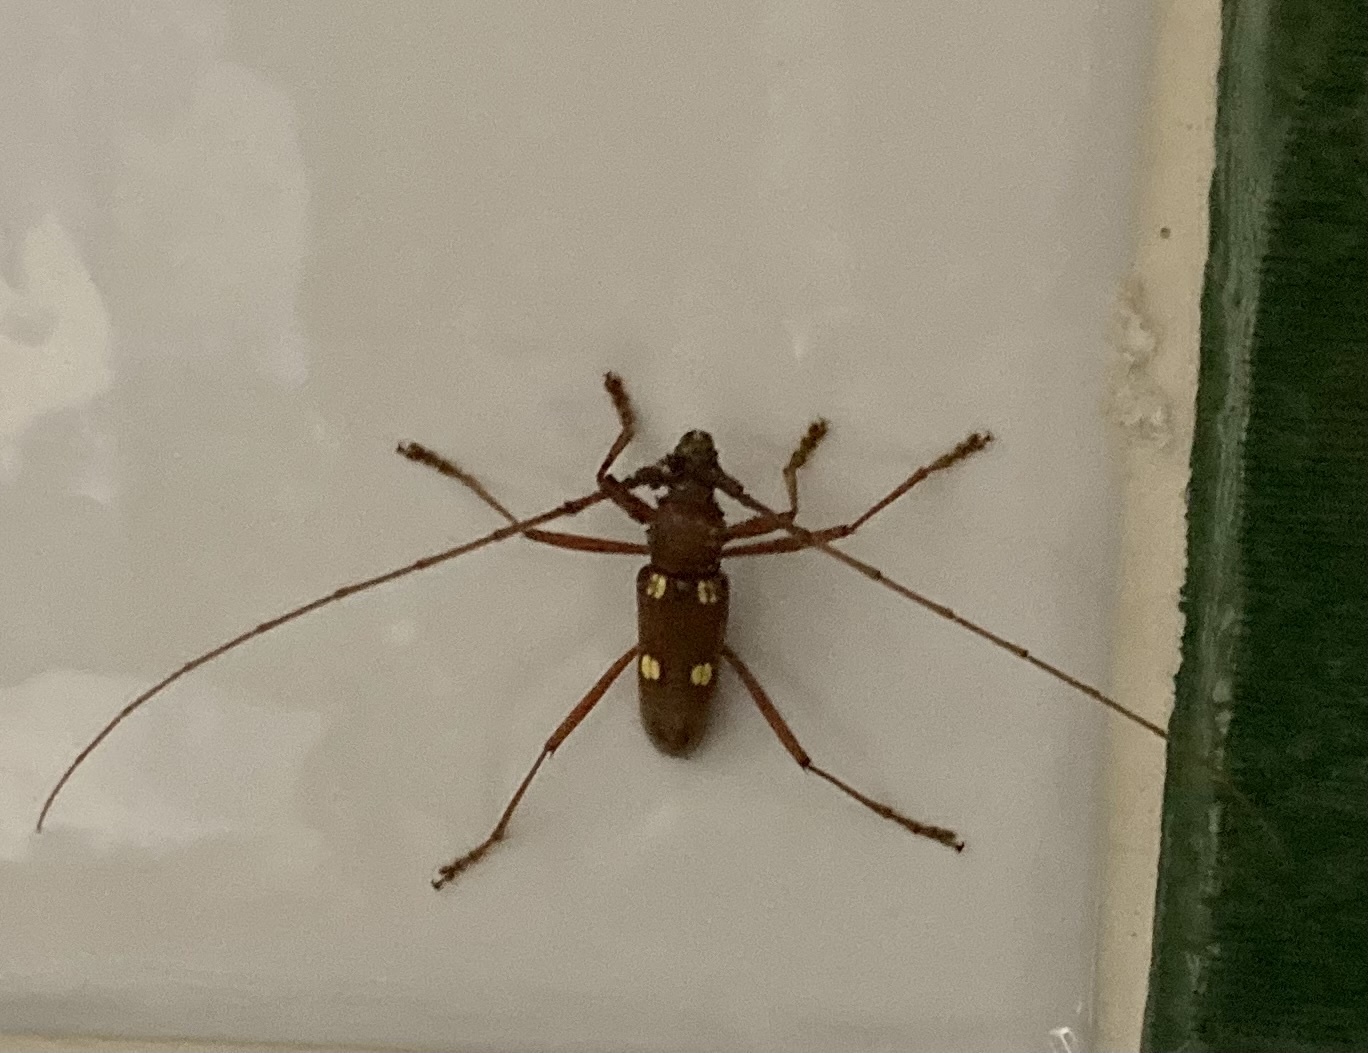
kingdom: Animalia
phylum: Arthropoda
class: Insecta
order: Coleoptera
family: Cerambycidae
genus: Eburia
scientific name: Eburia inexpectata
